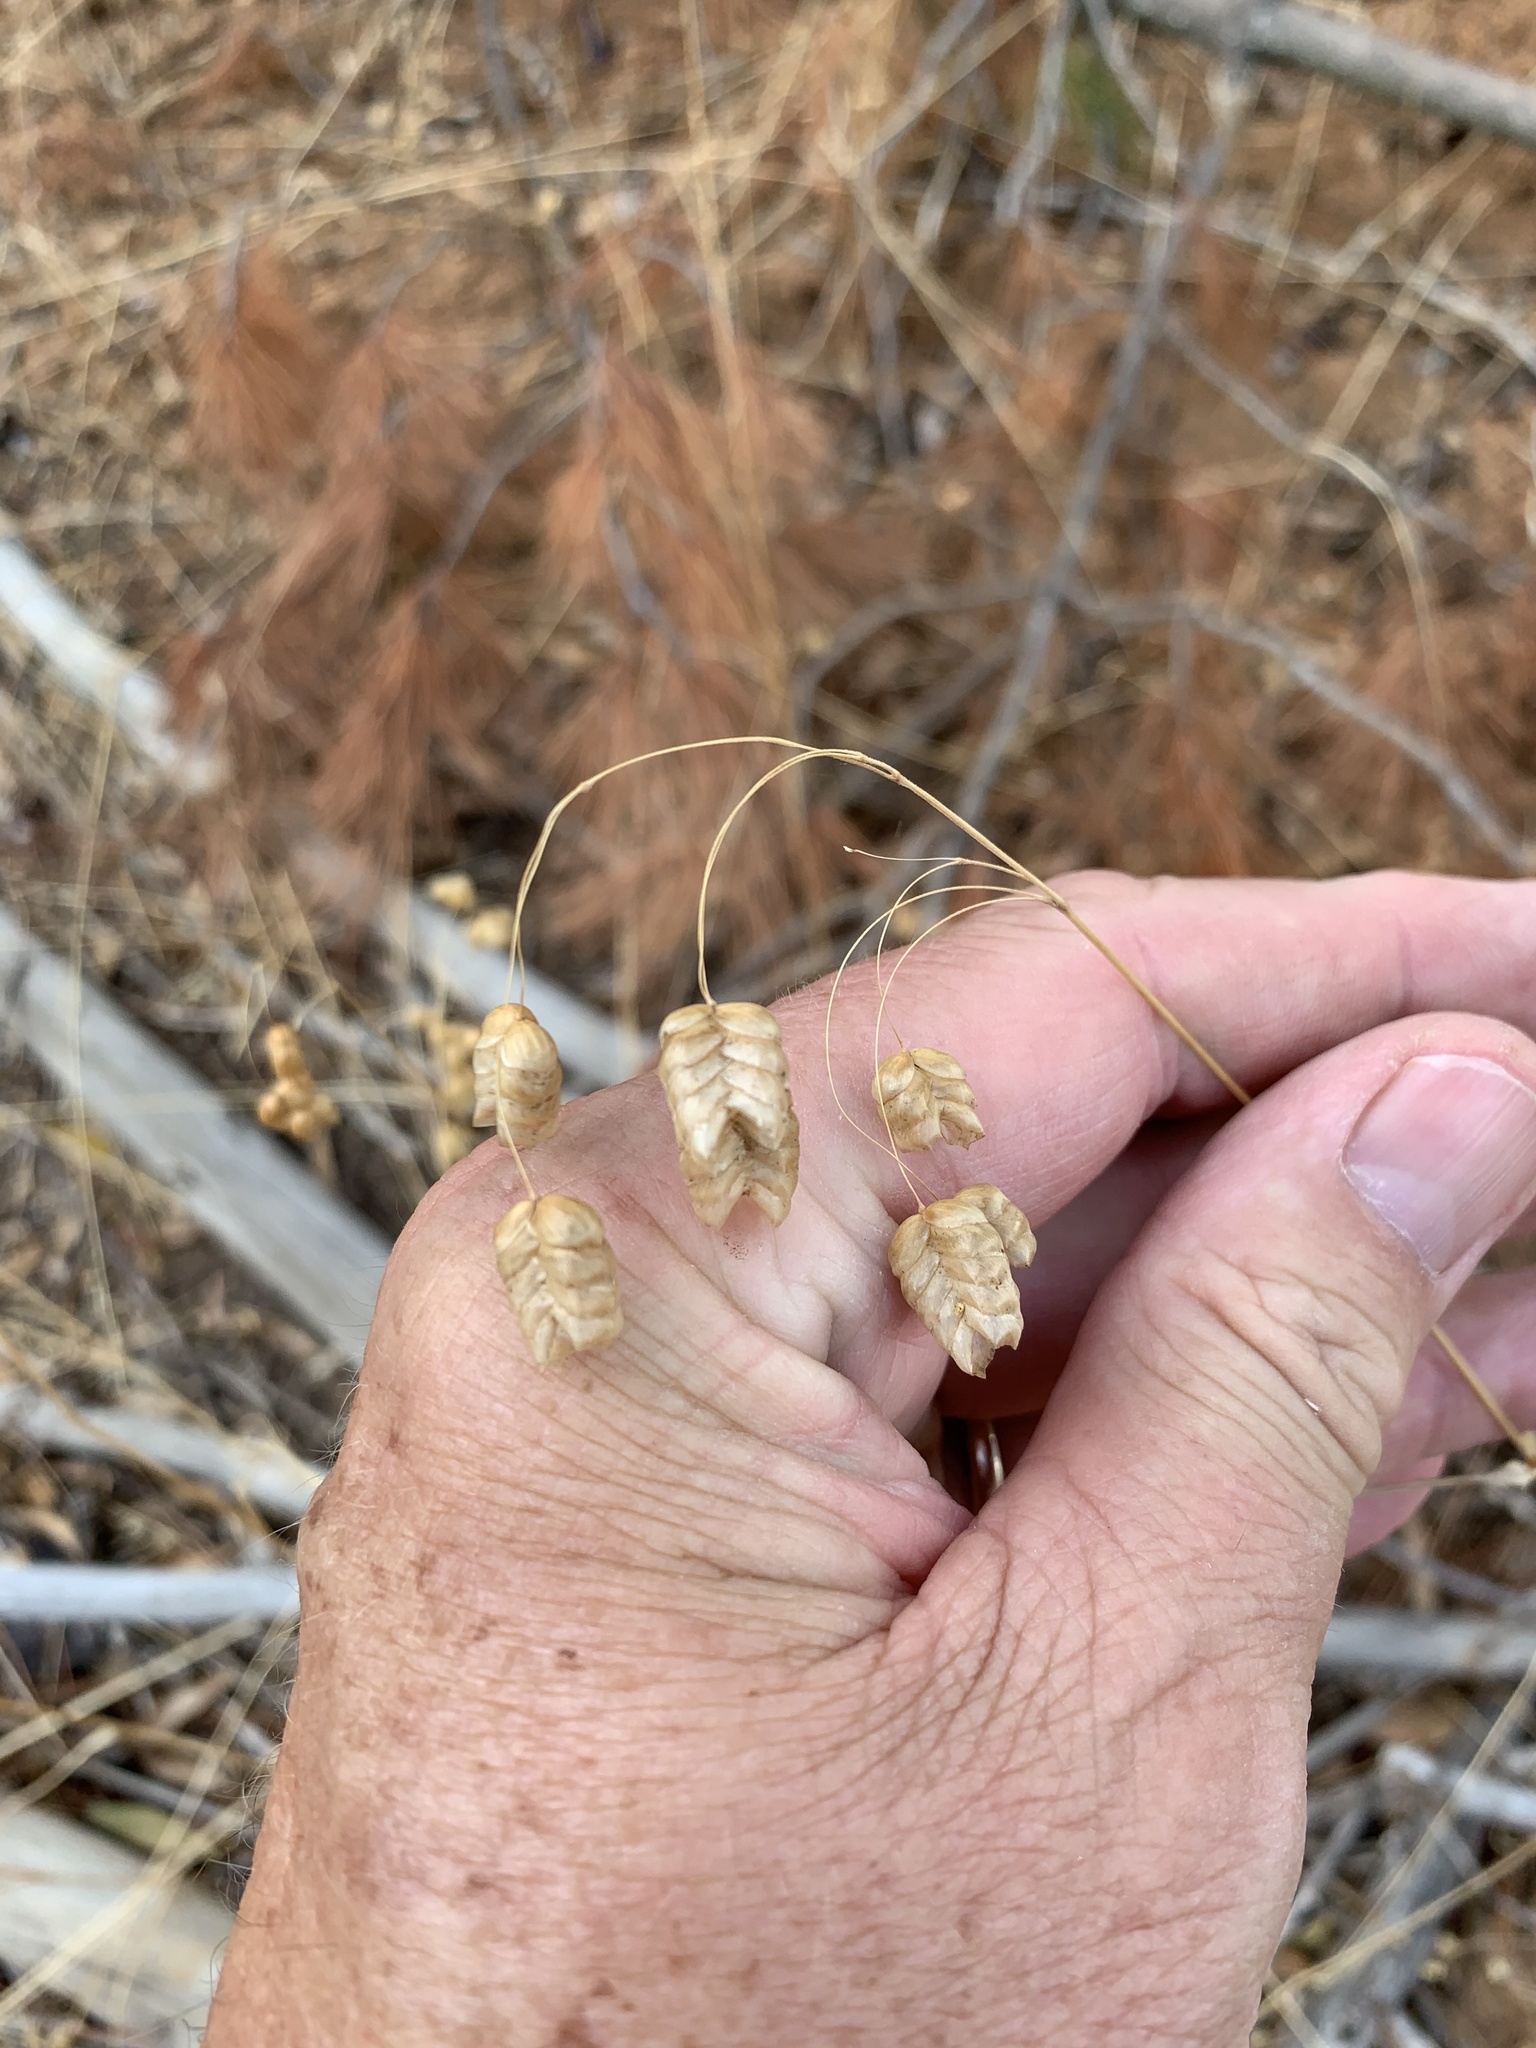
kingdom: Plantae
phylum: Tracheophyta
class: Liliopsida
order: Poales
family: Poaceae
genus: Briza
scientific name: Briza maxima
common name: Big quakinggrass
